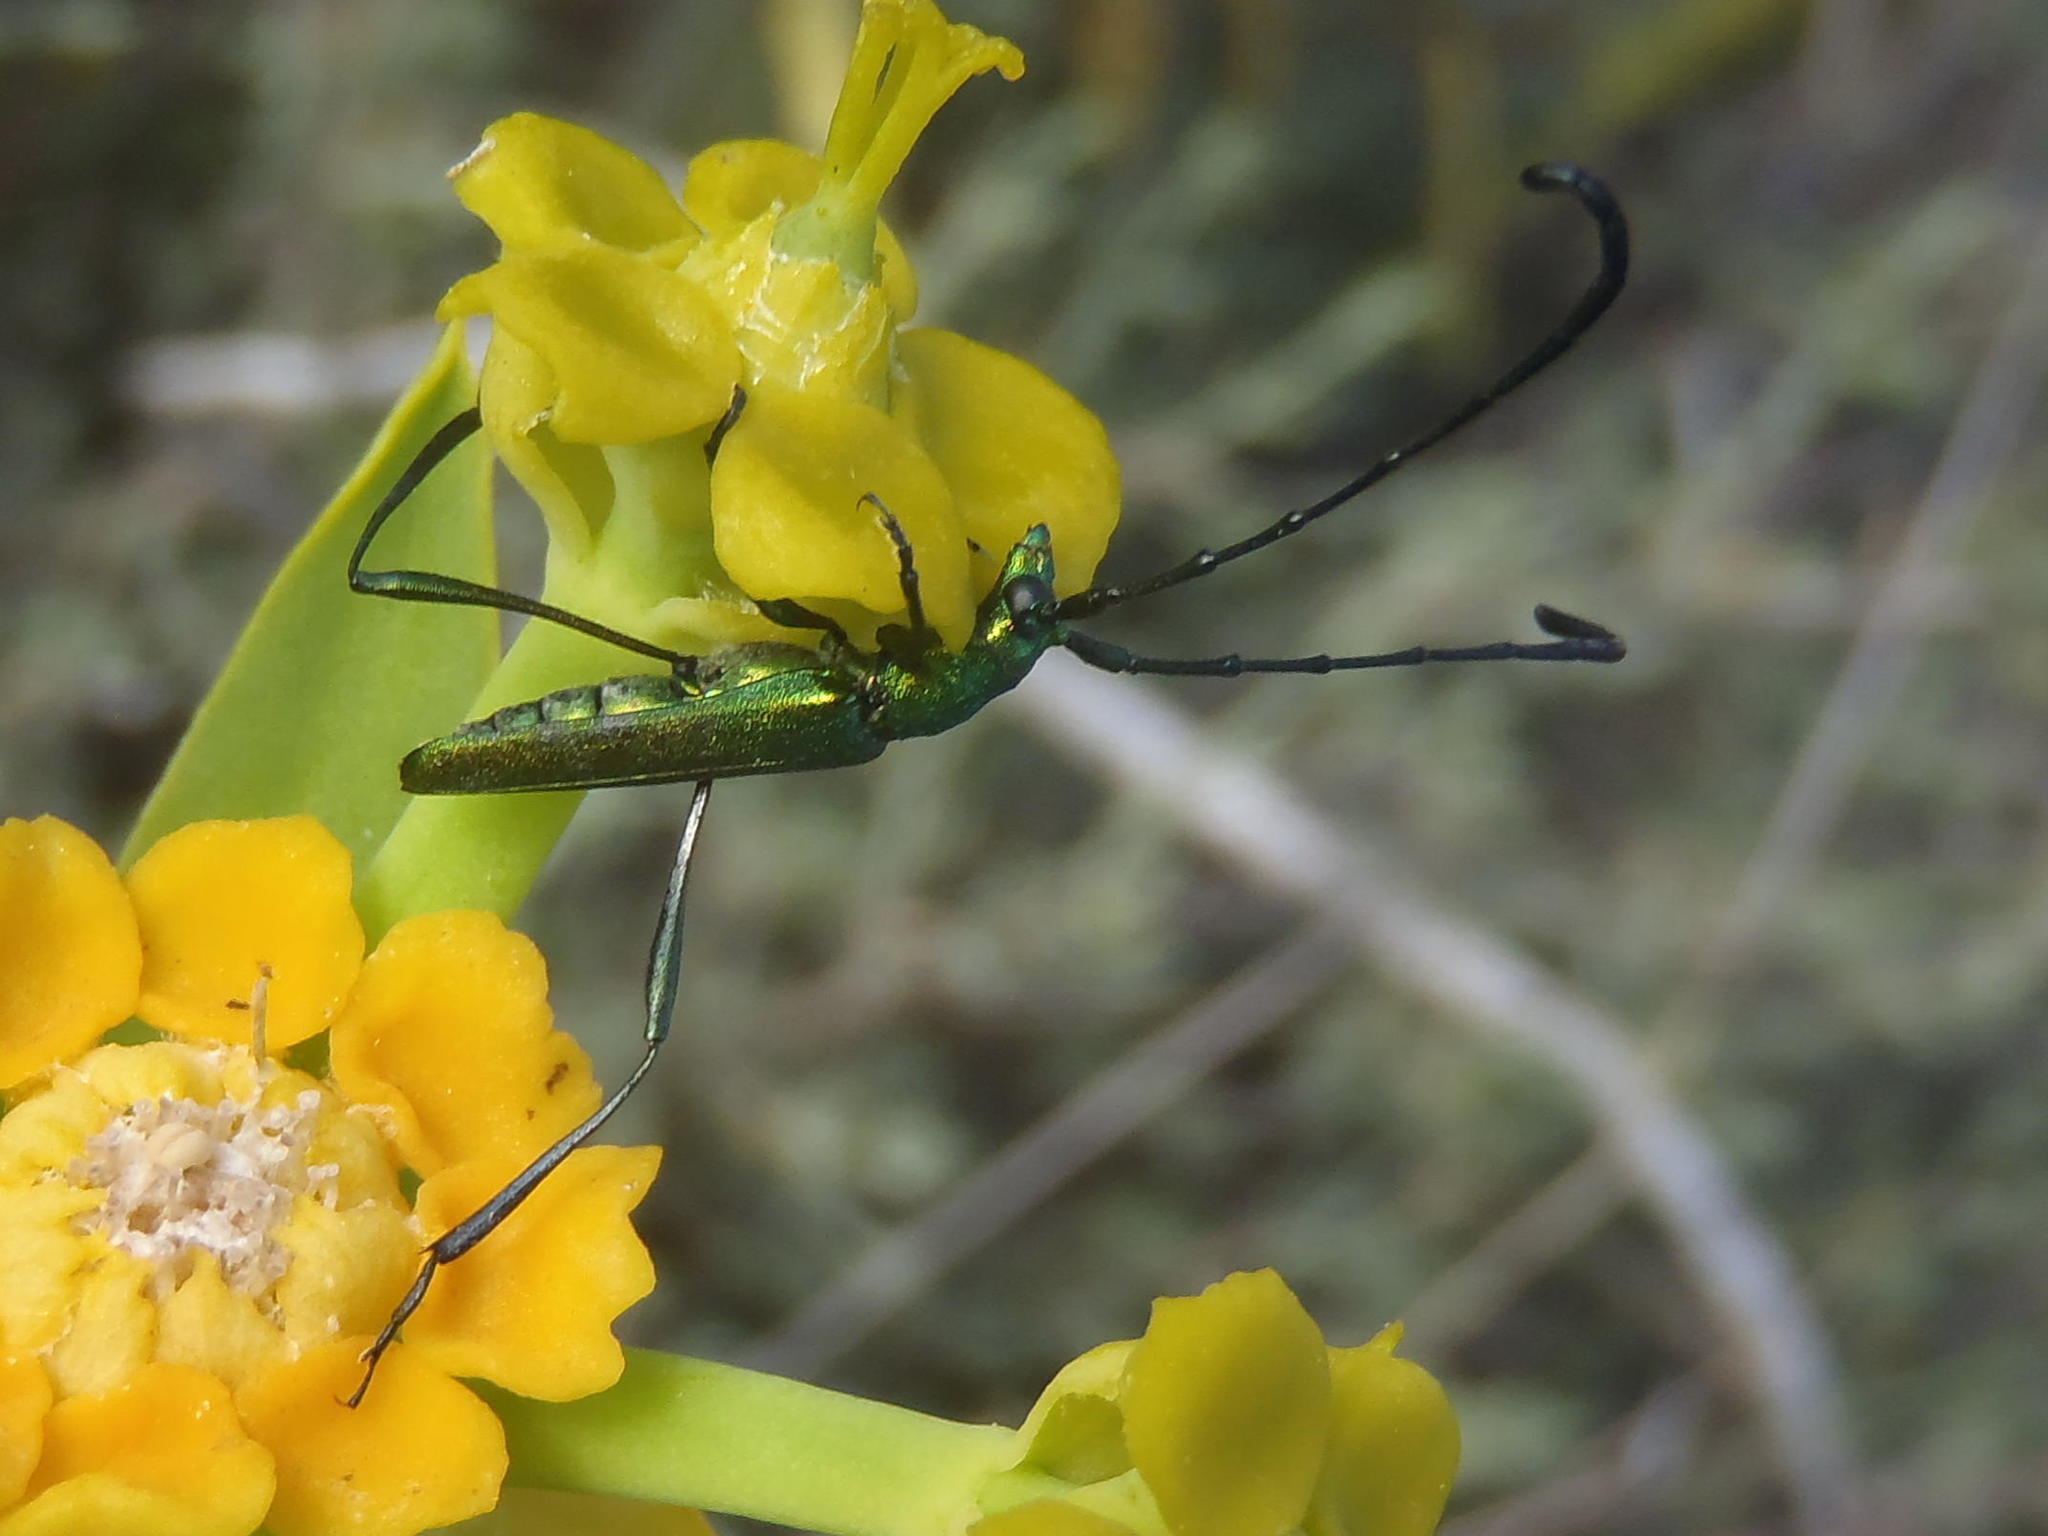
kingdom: Animalia
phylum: Arthropoda
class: Insecta
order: Coleoptera
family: Cerambycidae
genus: Promeces
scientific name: Promeces longipes
